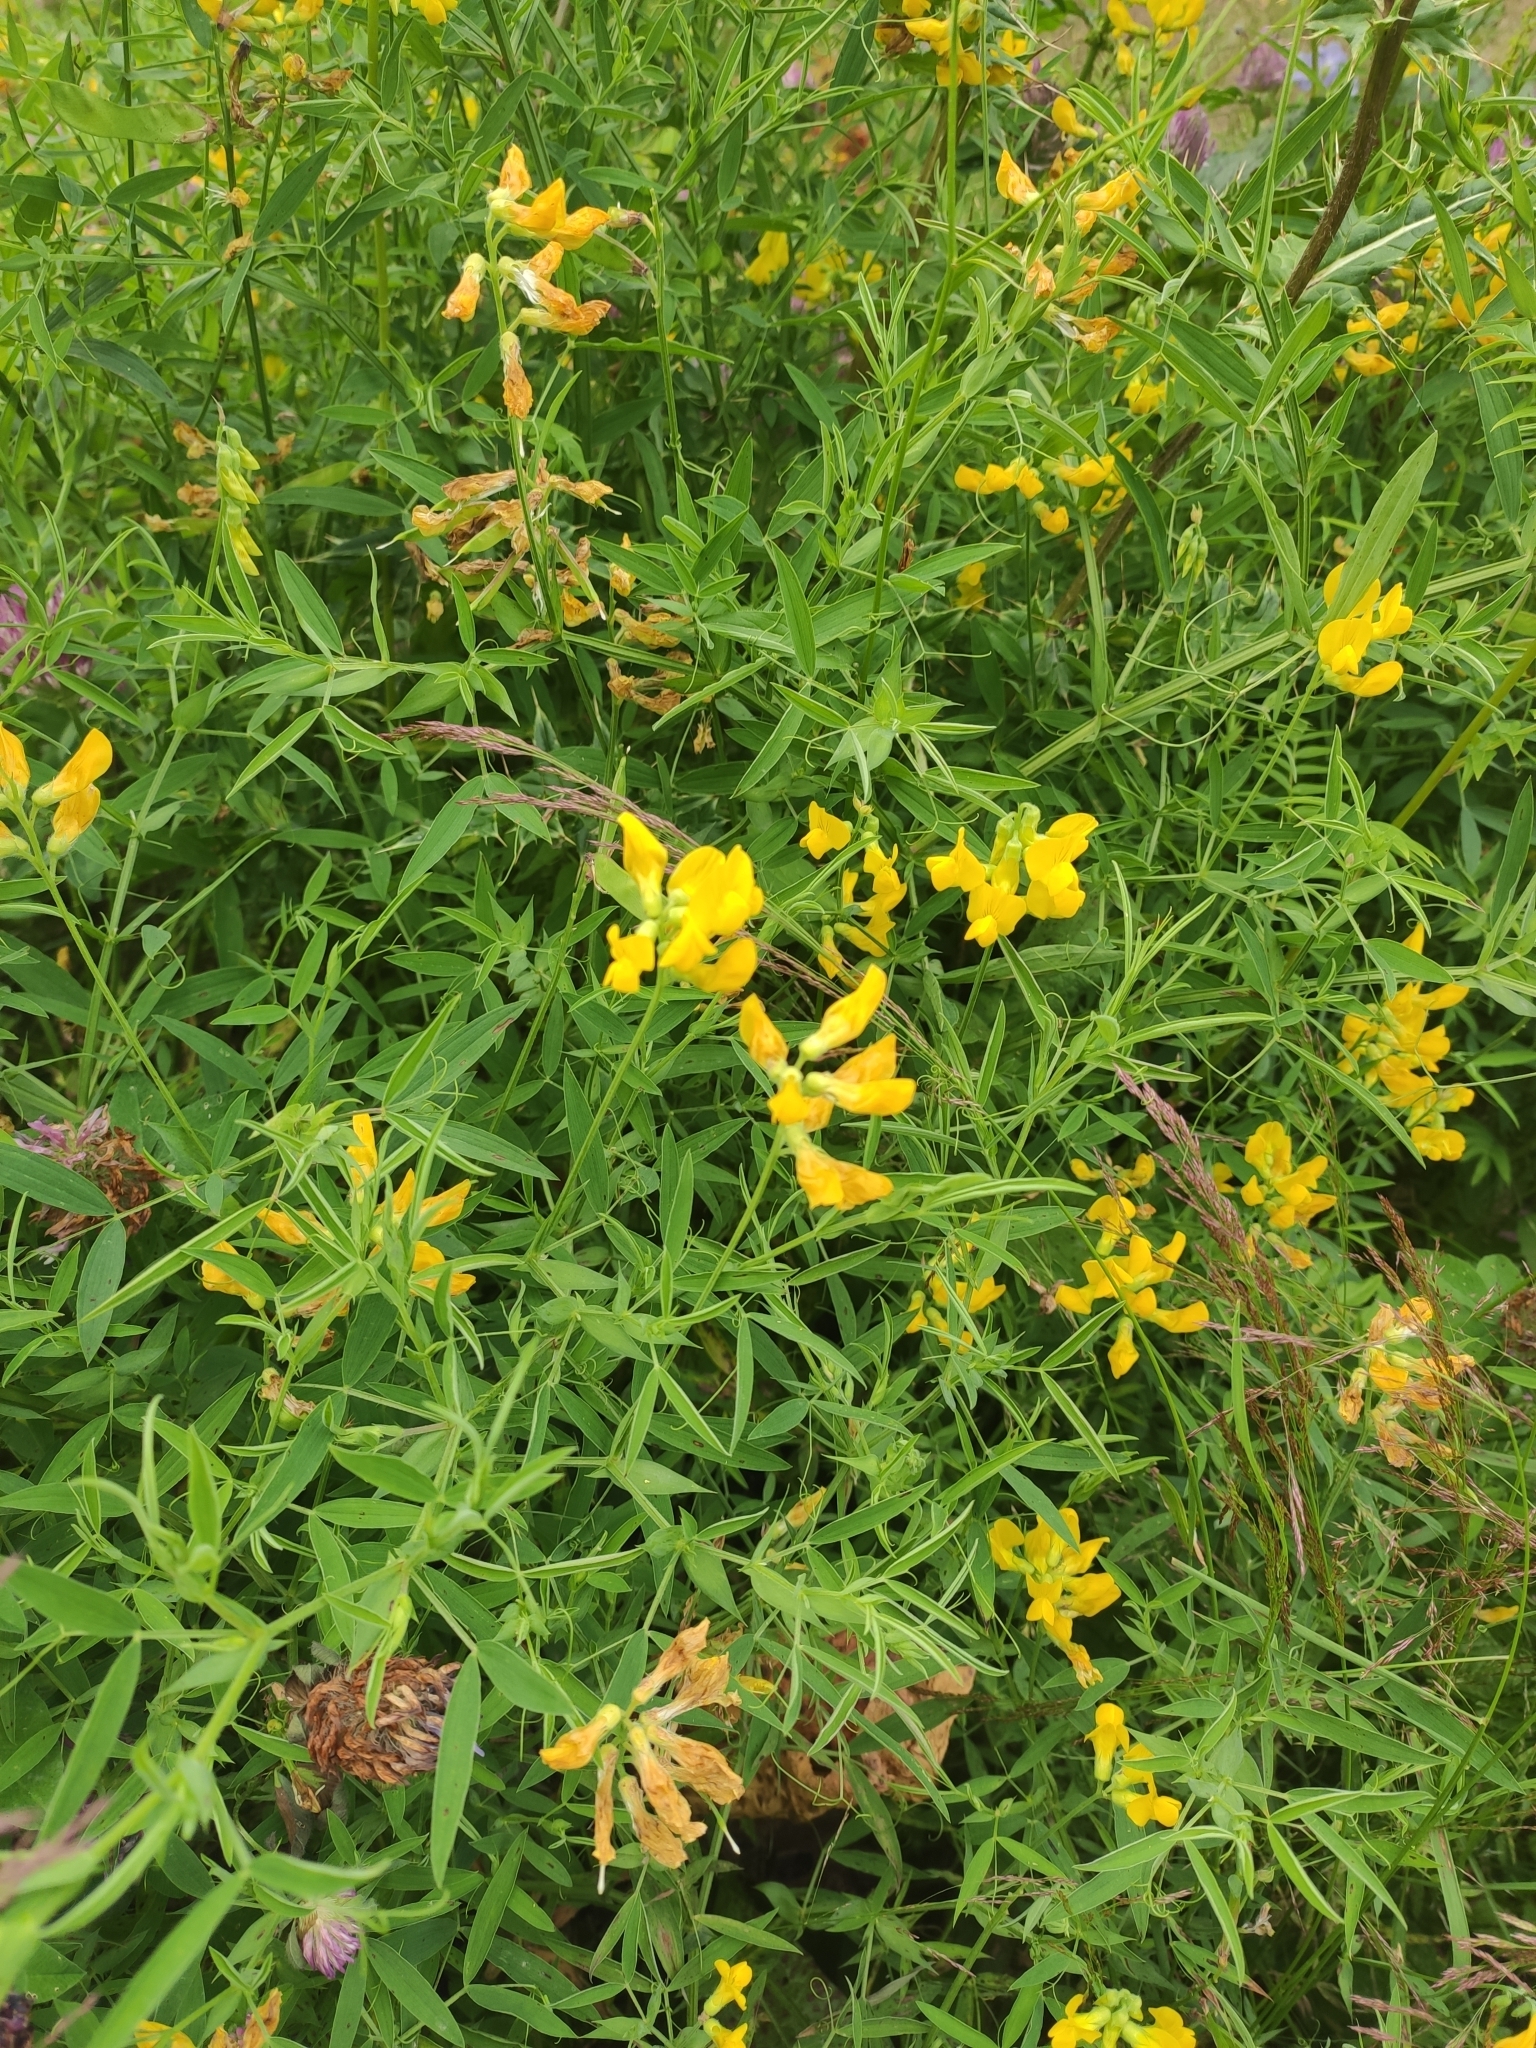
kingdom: Plantae
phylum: Tracheophyta
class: Magnoliopsida
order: Fabales
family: Fabaceae
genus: Lathyrus
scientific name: Lathyrus pratensis
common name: Meadow vetchling
